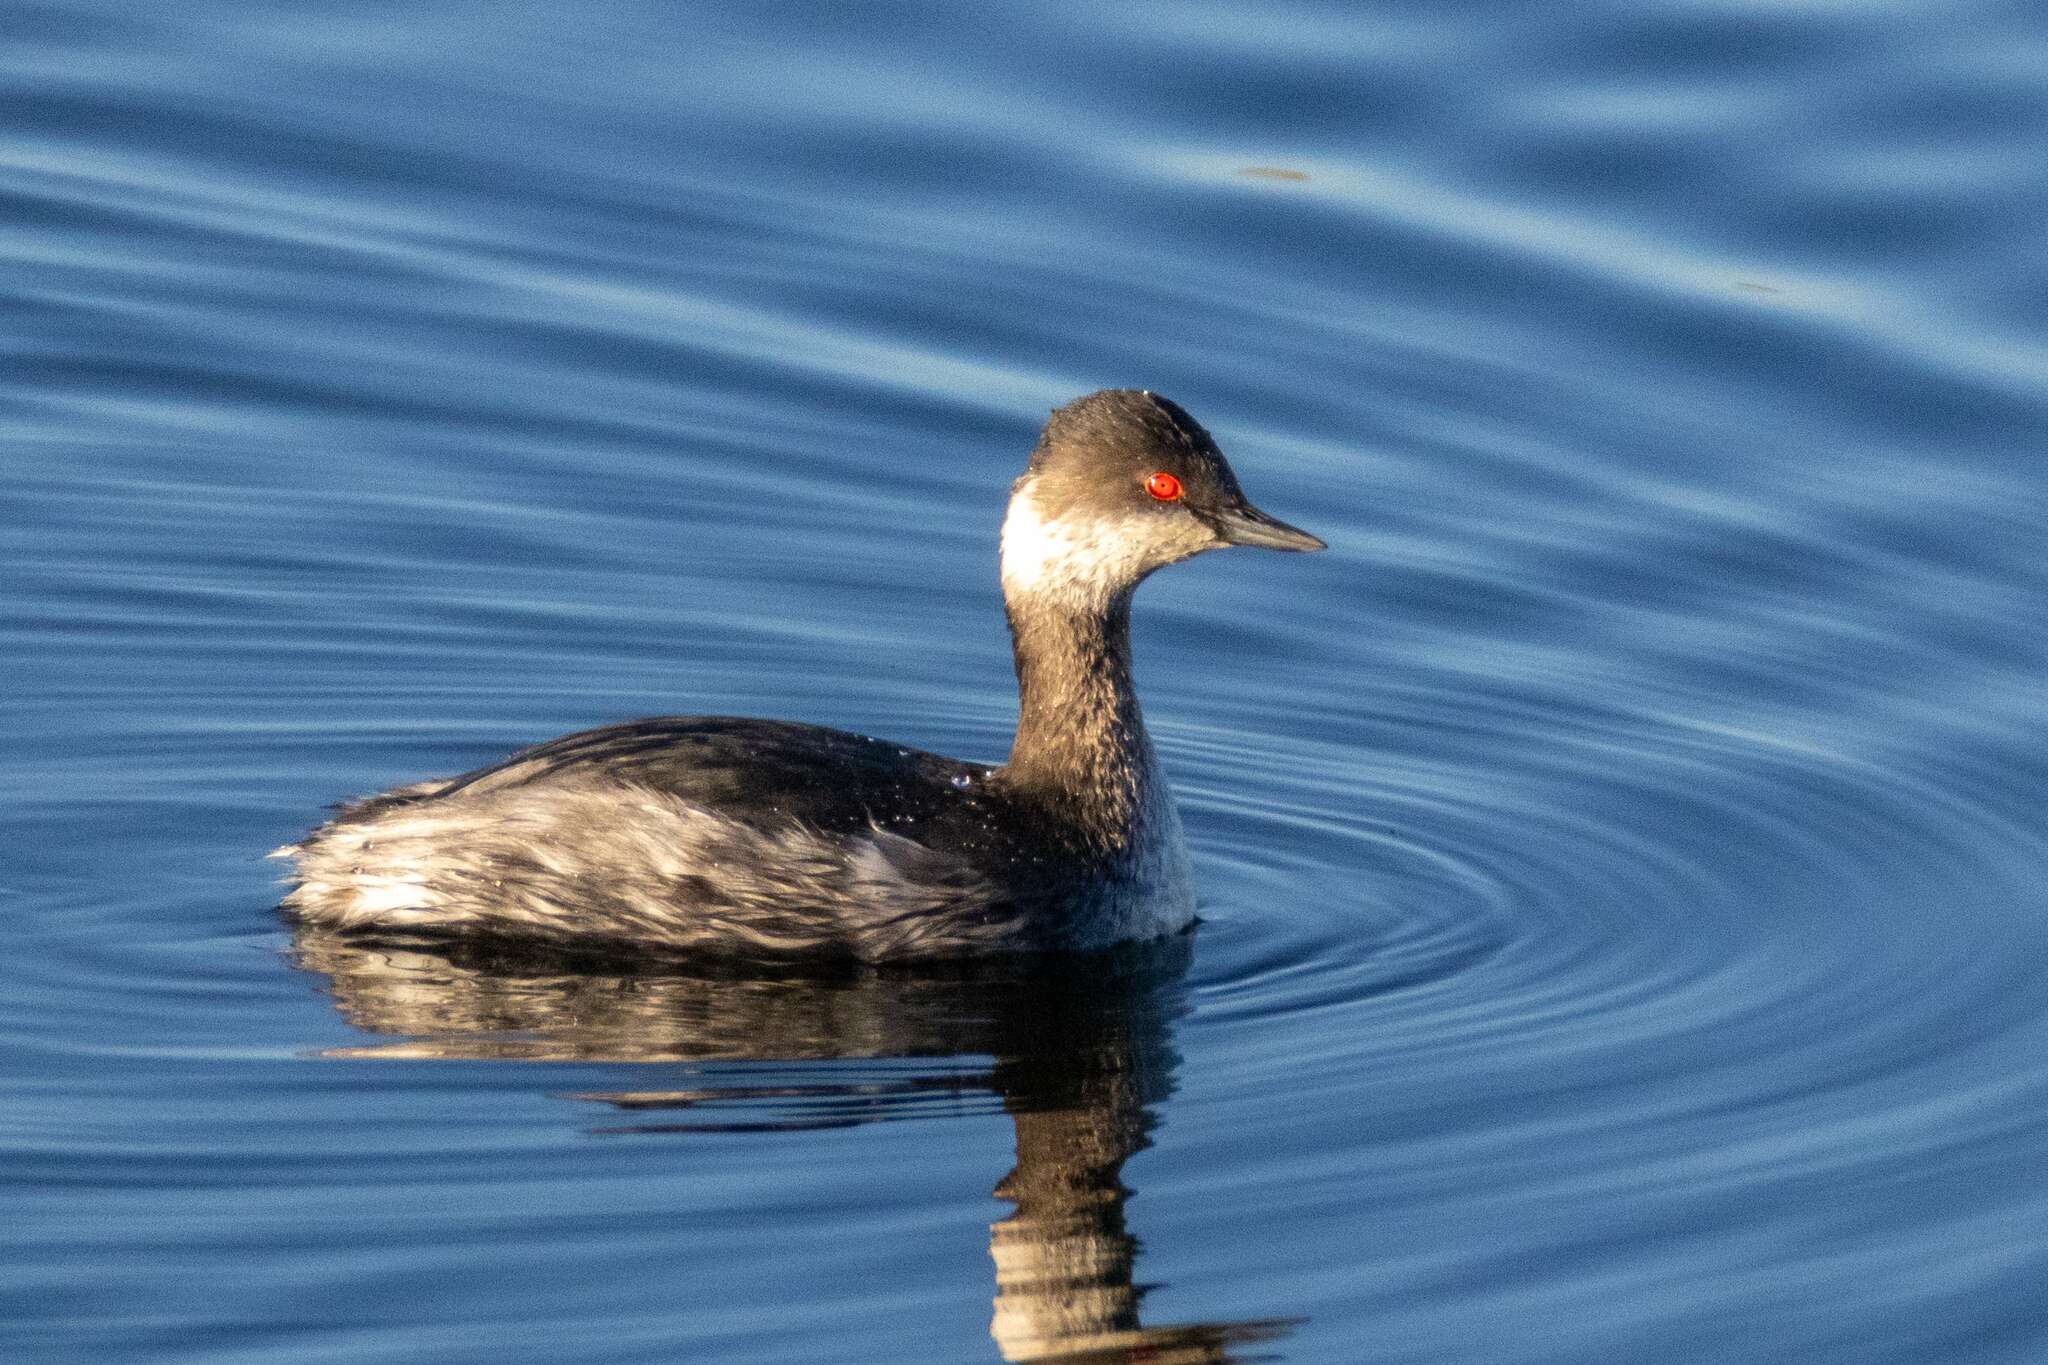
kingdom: Animalia
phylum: Chordata
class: Aves
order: Podicipediformes
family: Podicipedidae
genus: Podiceps
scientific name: Podiceps nigricollis
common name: Black-necked grebe
